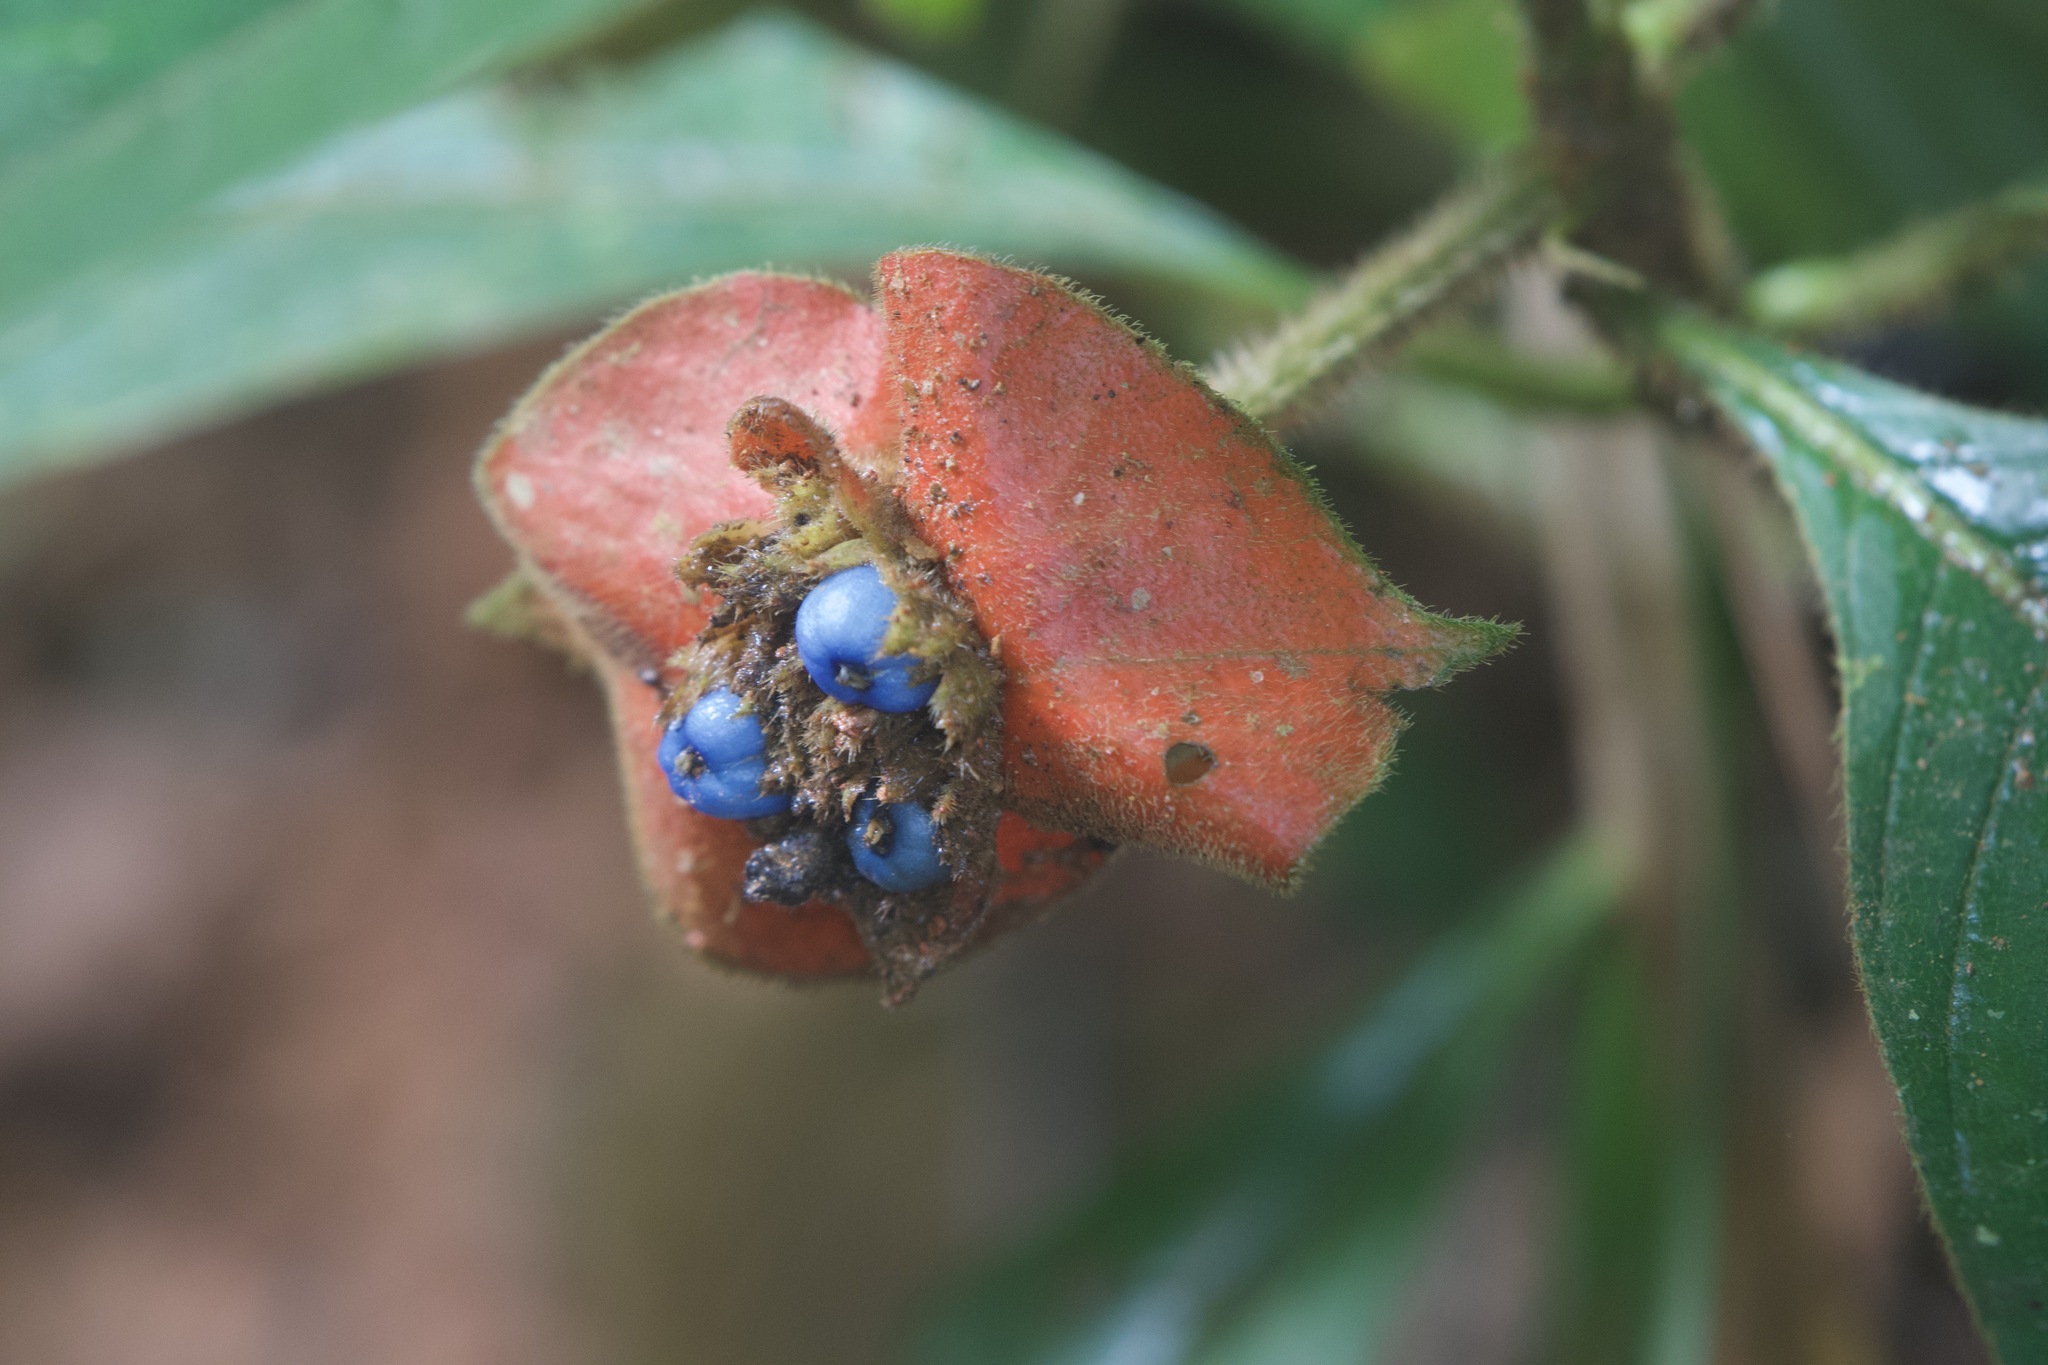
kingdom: Plantae
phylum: Tracheophyta
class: Magnoliopsida
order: Gentianales
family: Rubiaceae
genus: Palicourea
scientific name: Palicourea tomentosa
